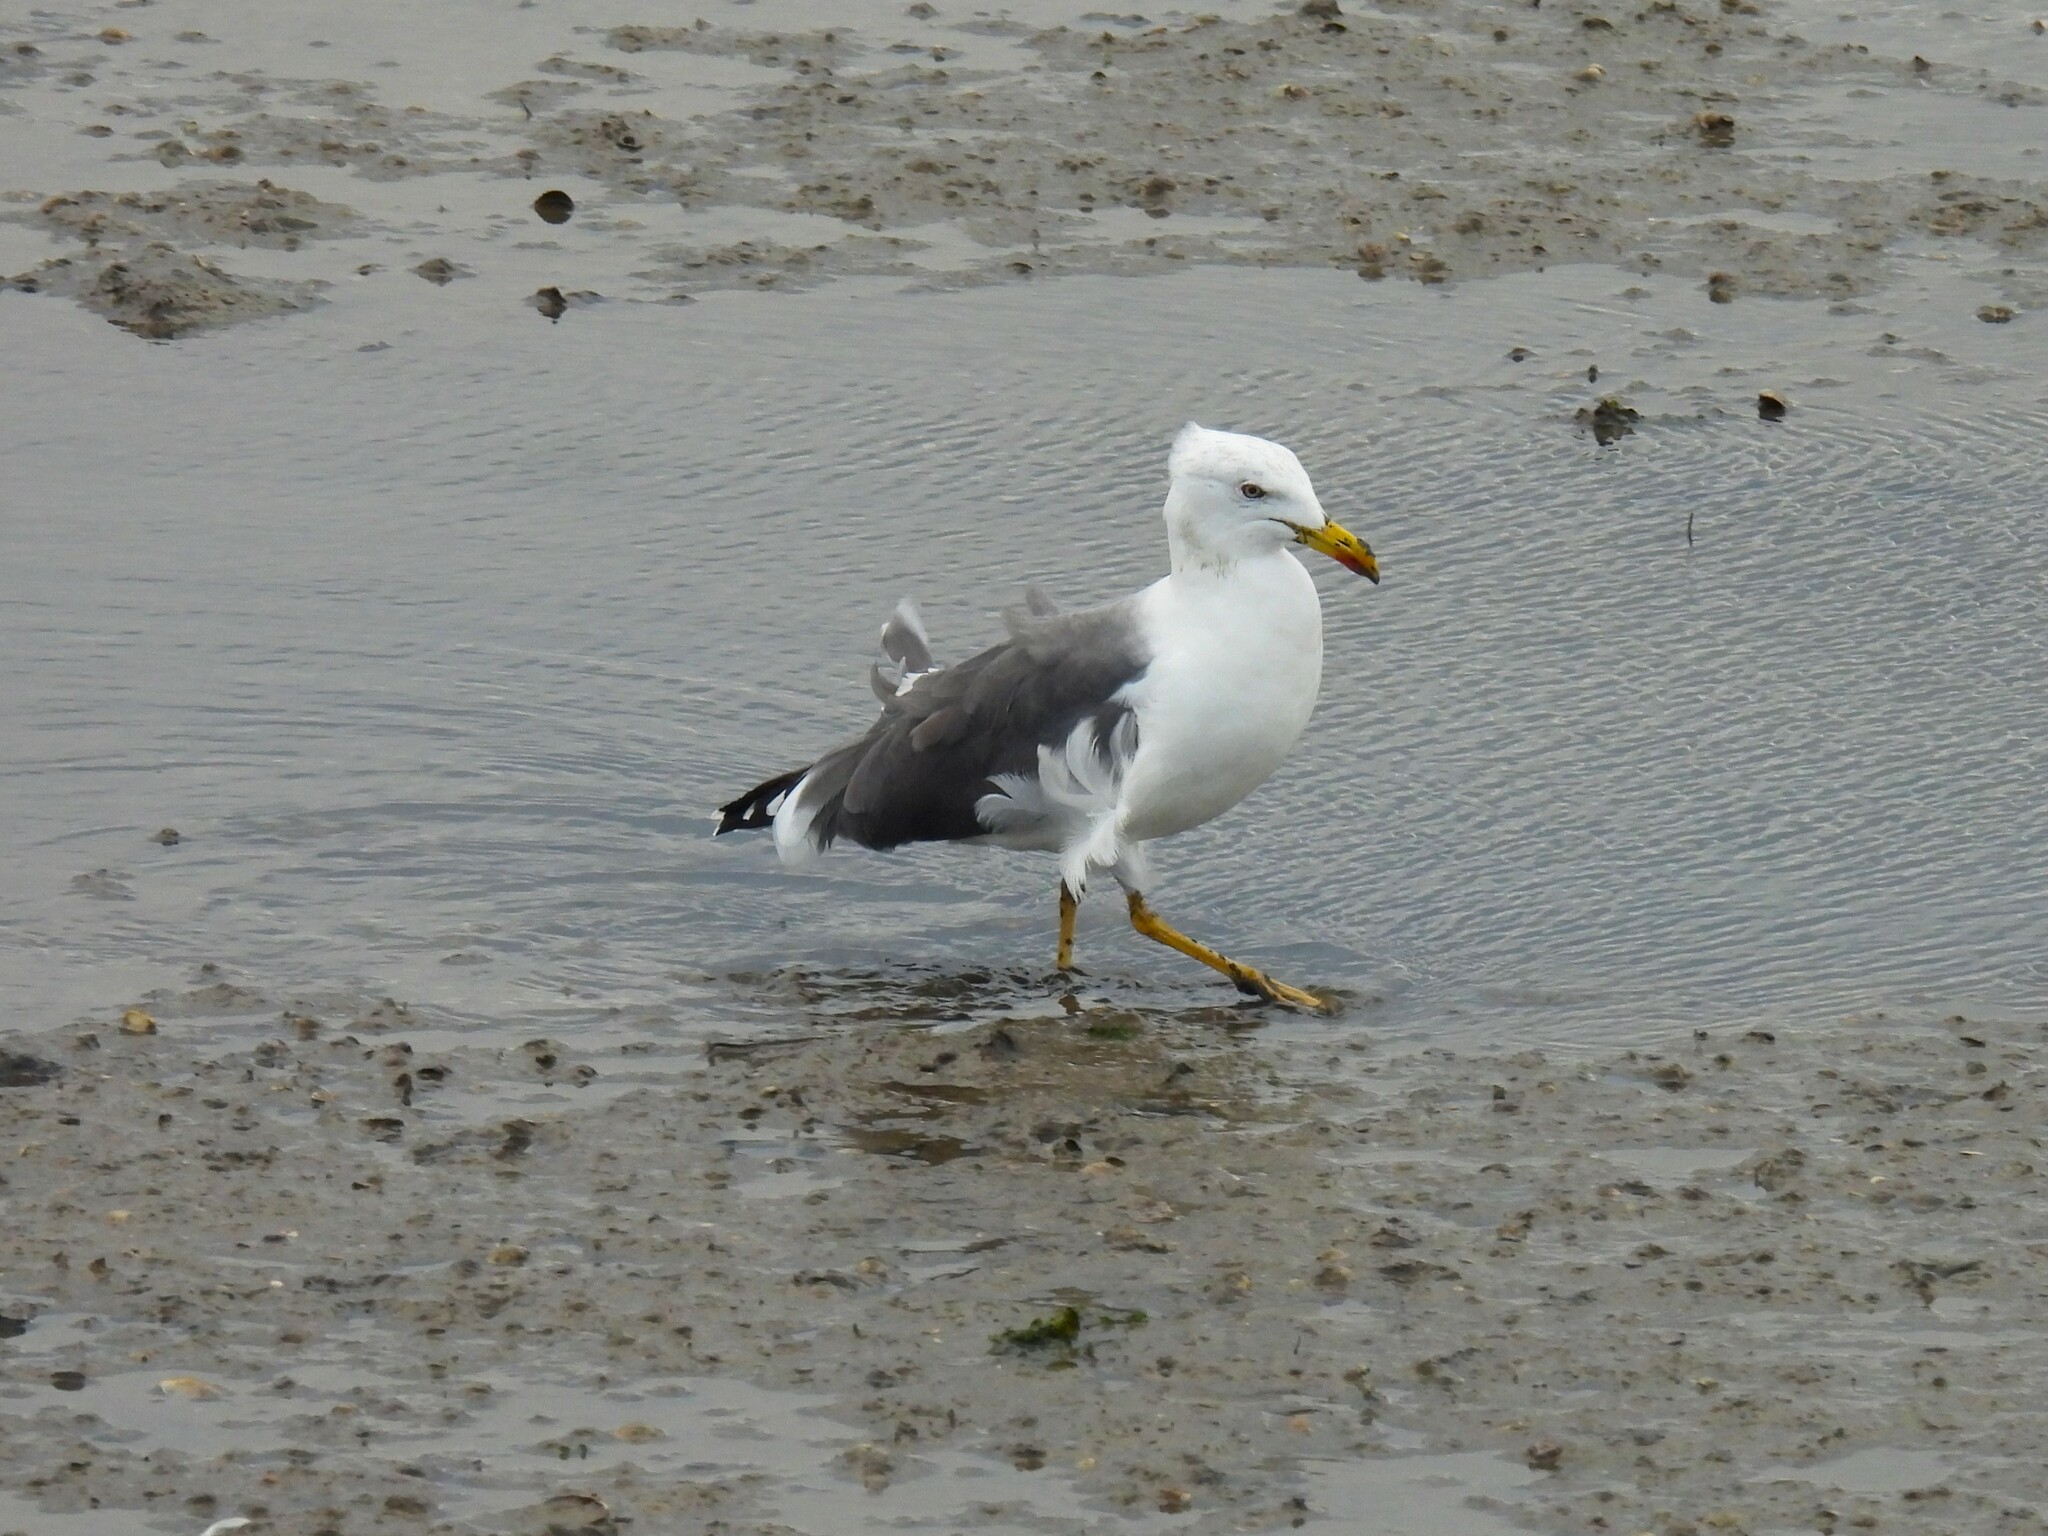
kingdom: Animalia
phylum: Chordata
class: Aves
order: Charadriiformes
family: Laridae
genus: Larus
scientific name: Larus fuscus
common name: Lesser black-backed gull
